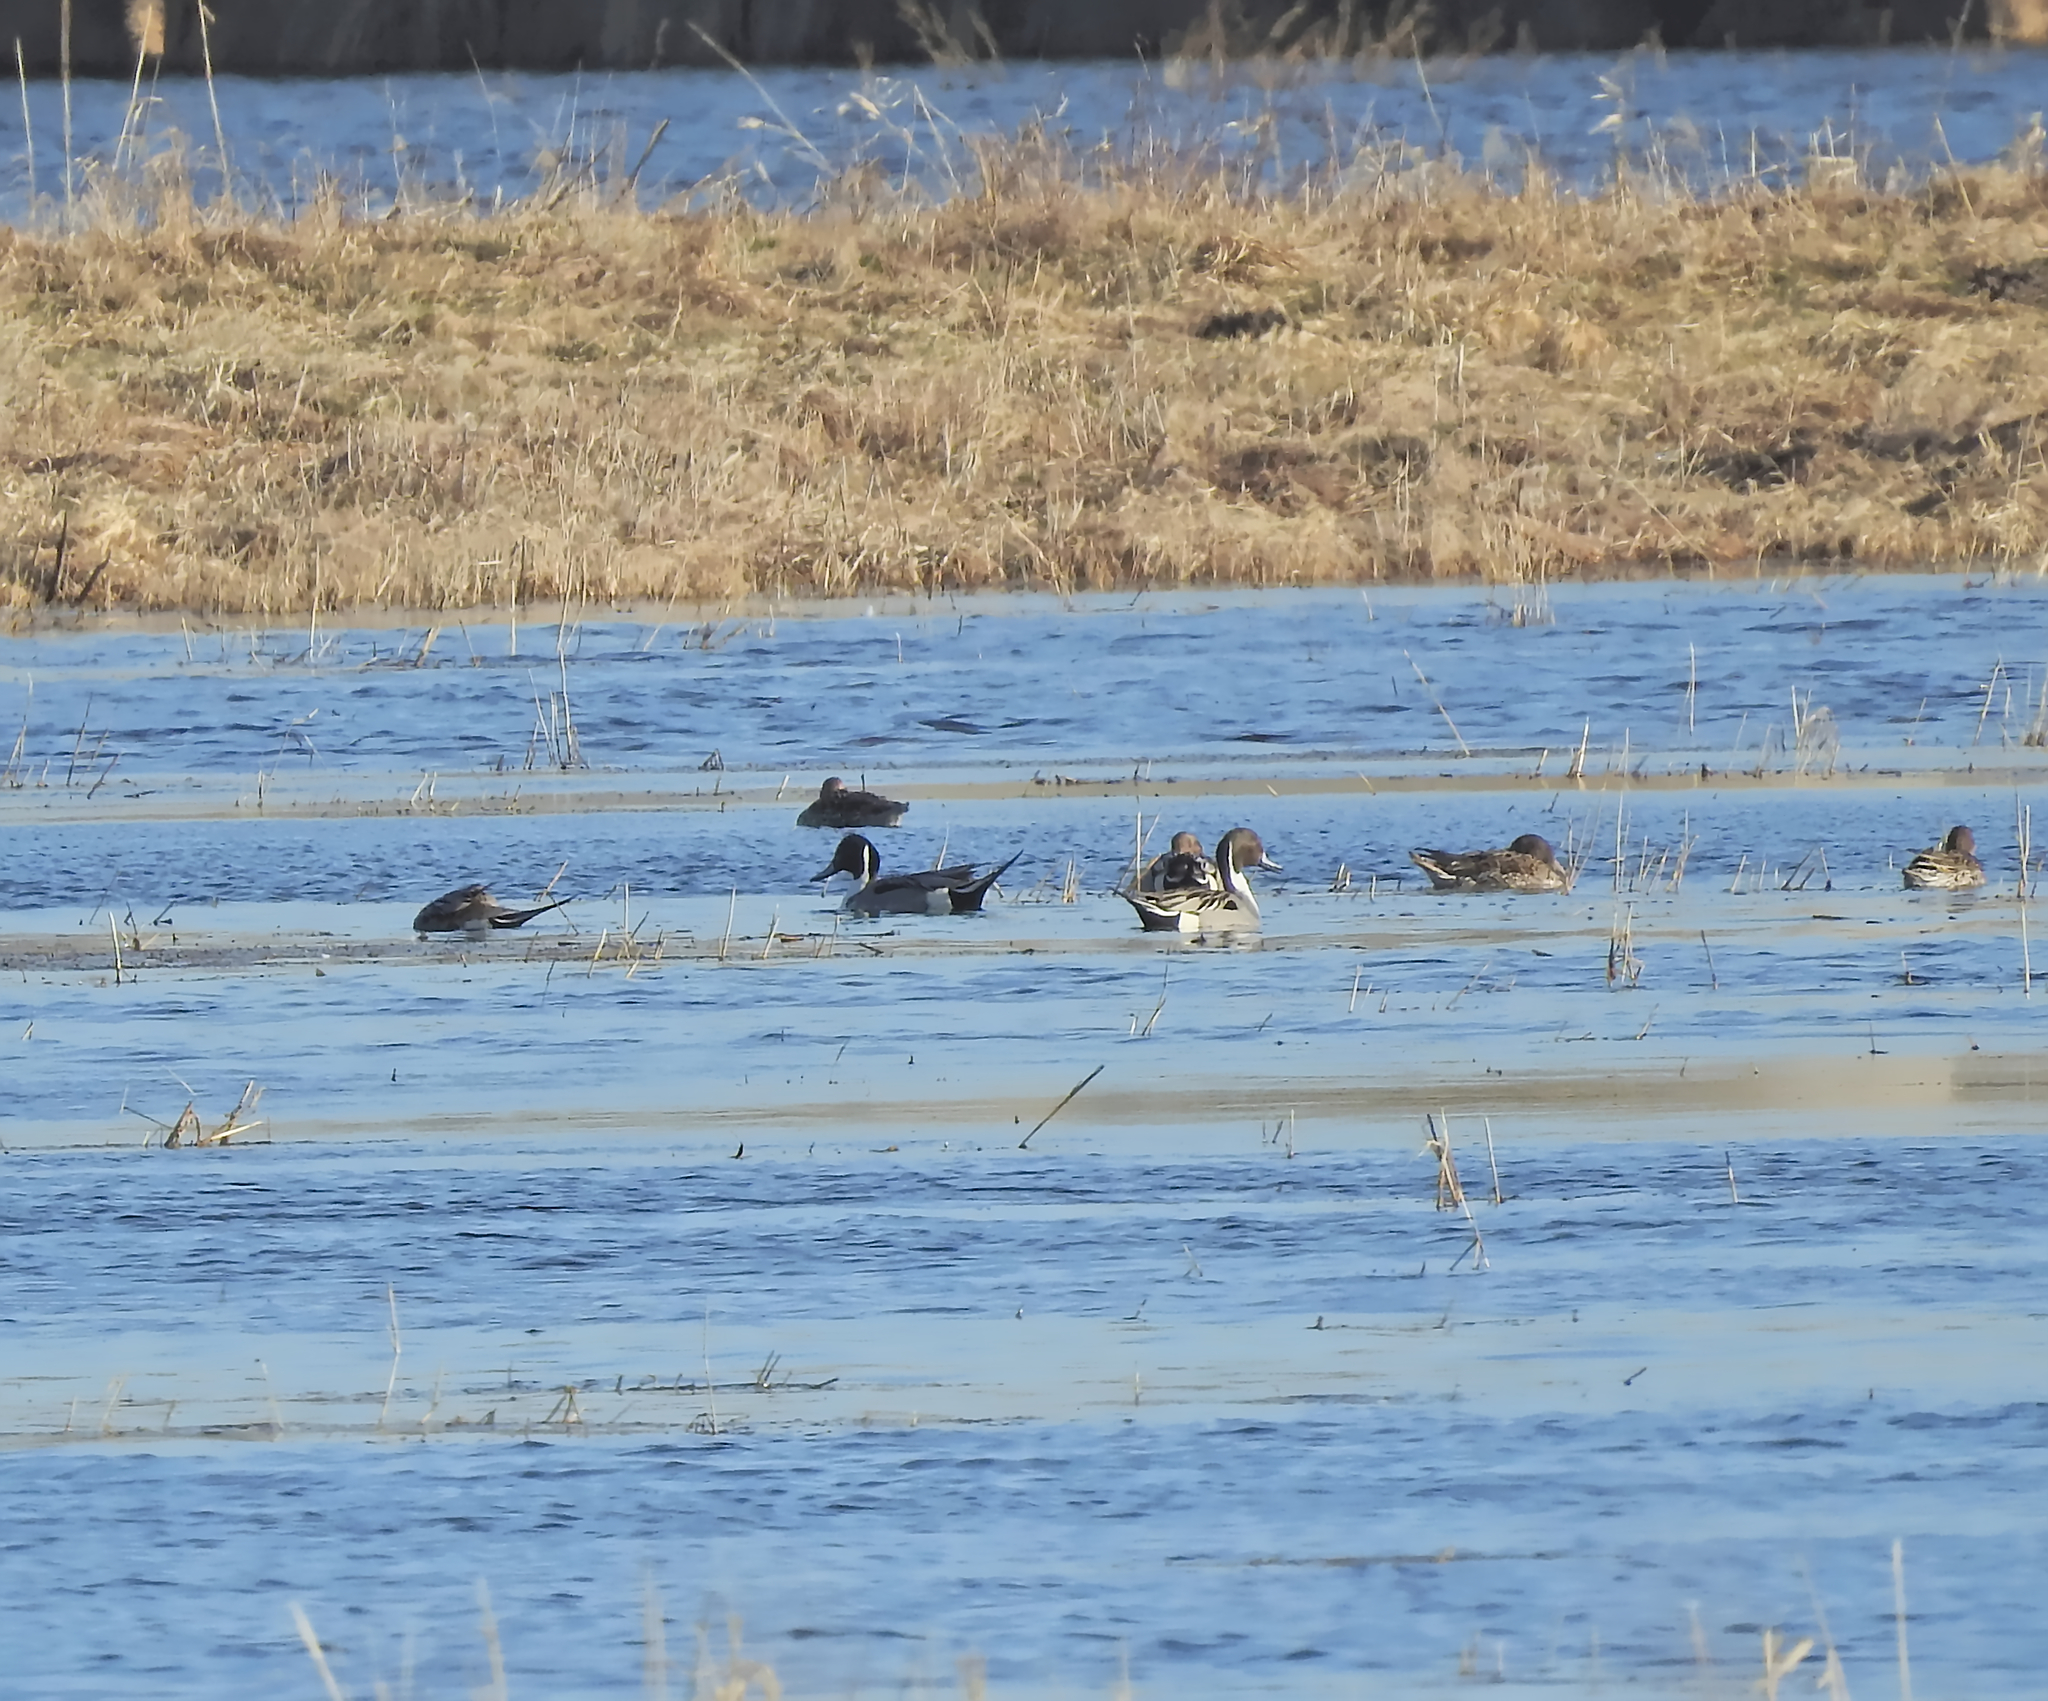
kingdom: Animalia
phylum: Chordata
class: Aves
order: Anseriformes
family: Anatidae
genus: Anas
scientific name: Anas acuta
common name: Northern pintail
